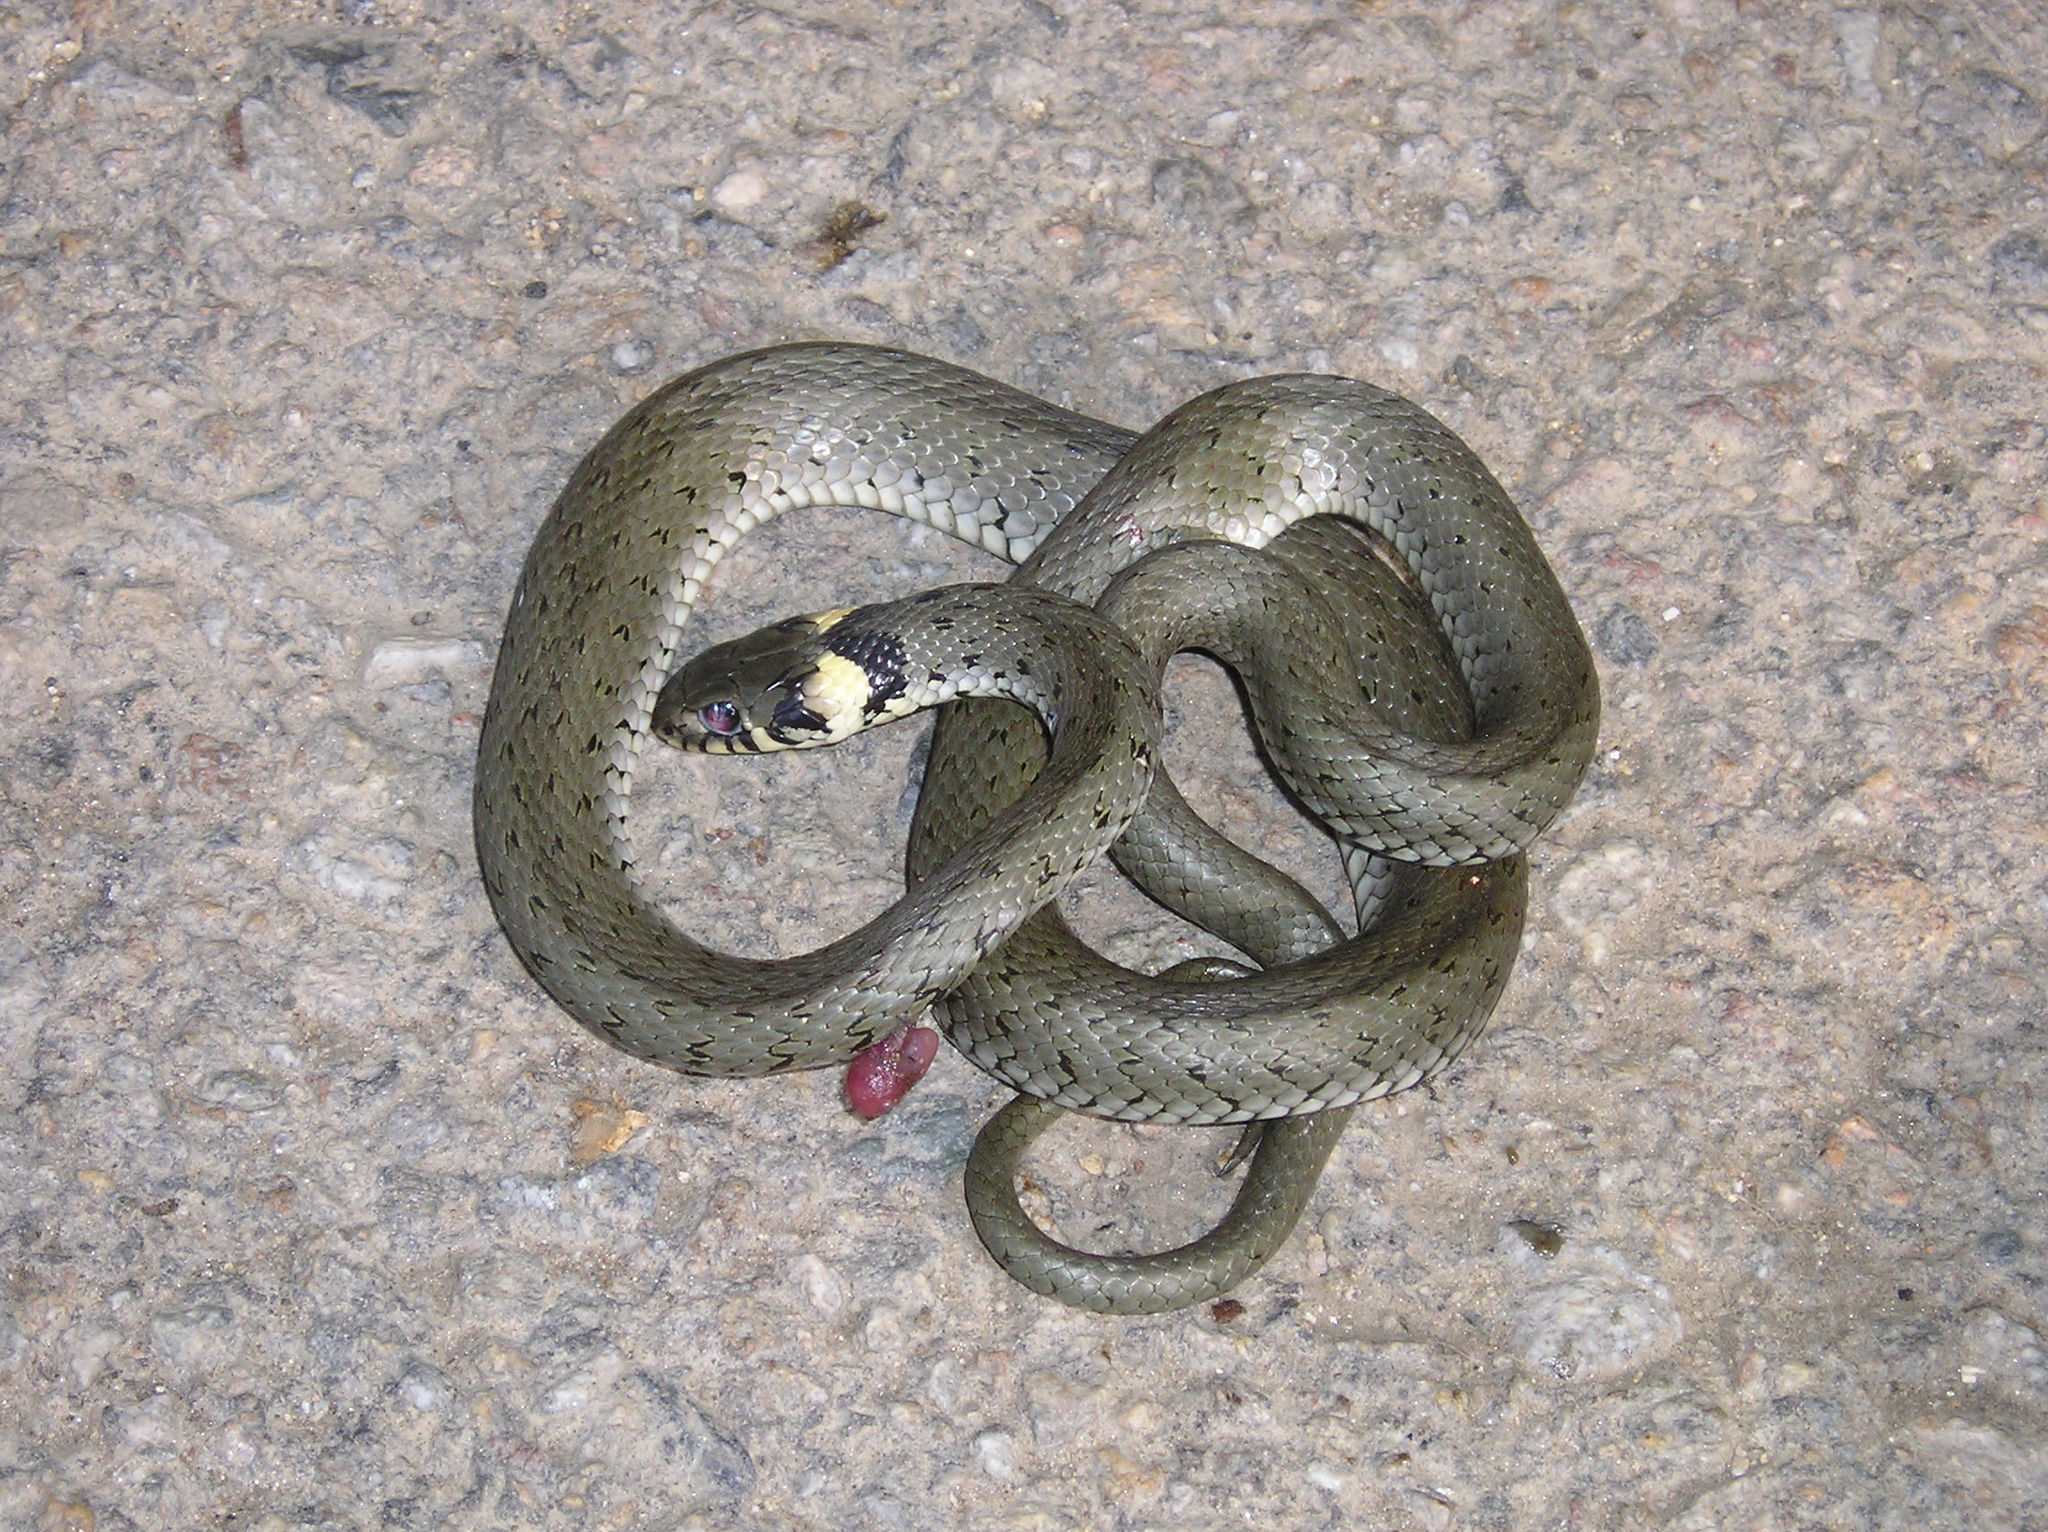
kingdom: Animalia
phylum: Chordata
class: Squamata
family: Colubridae
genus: Natrix
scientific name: Natrix natrix
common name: Grass snake
